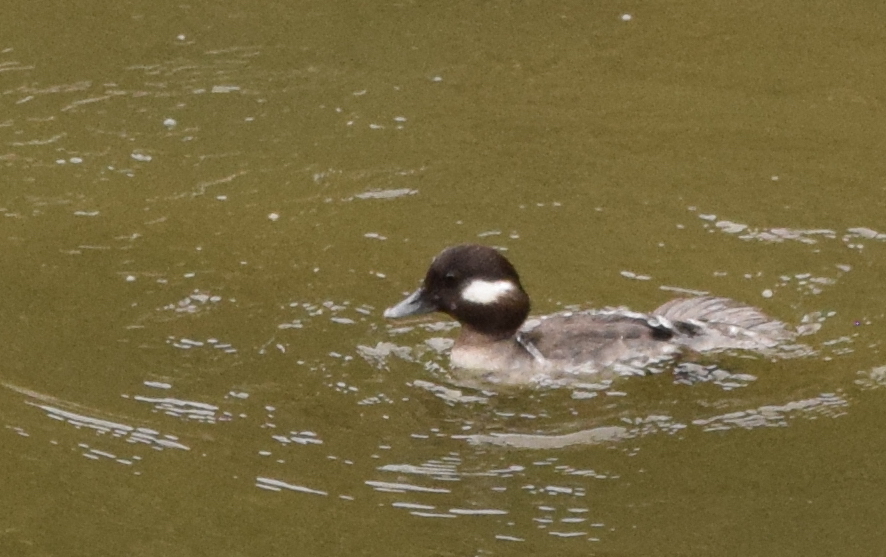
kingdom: Animalia
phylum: Chordata
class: Aves
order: Anseriformes
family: Anatidae
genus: Bucephala
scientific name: Bucephala albeola
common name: Bufflehead
